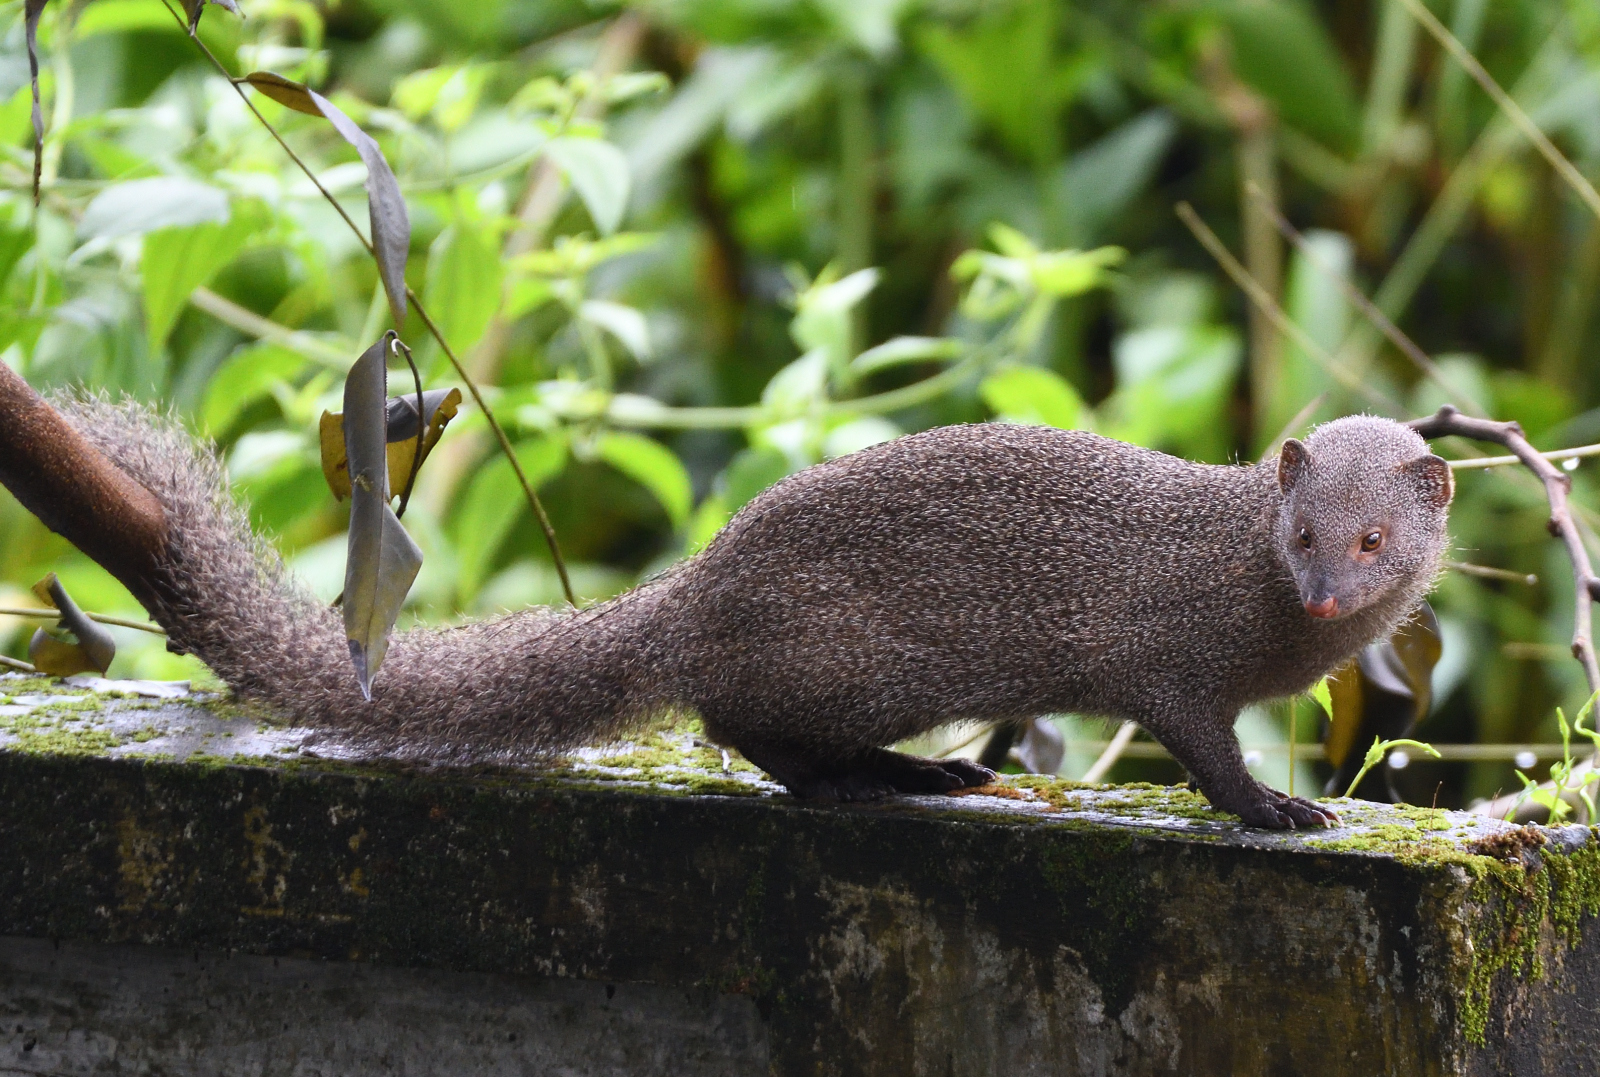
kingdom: Animalia
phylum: Chordata
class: Mammalia
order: Carnivora
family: Herpestidae
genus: Herpestes
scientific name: Herpestes edwardsi
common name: Indian gray mongoose
